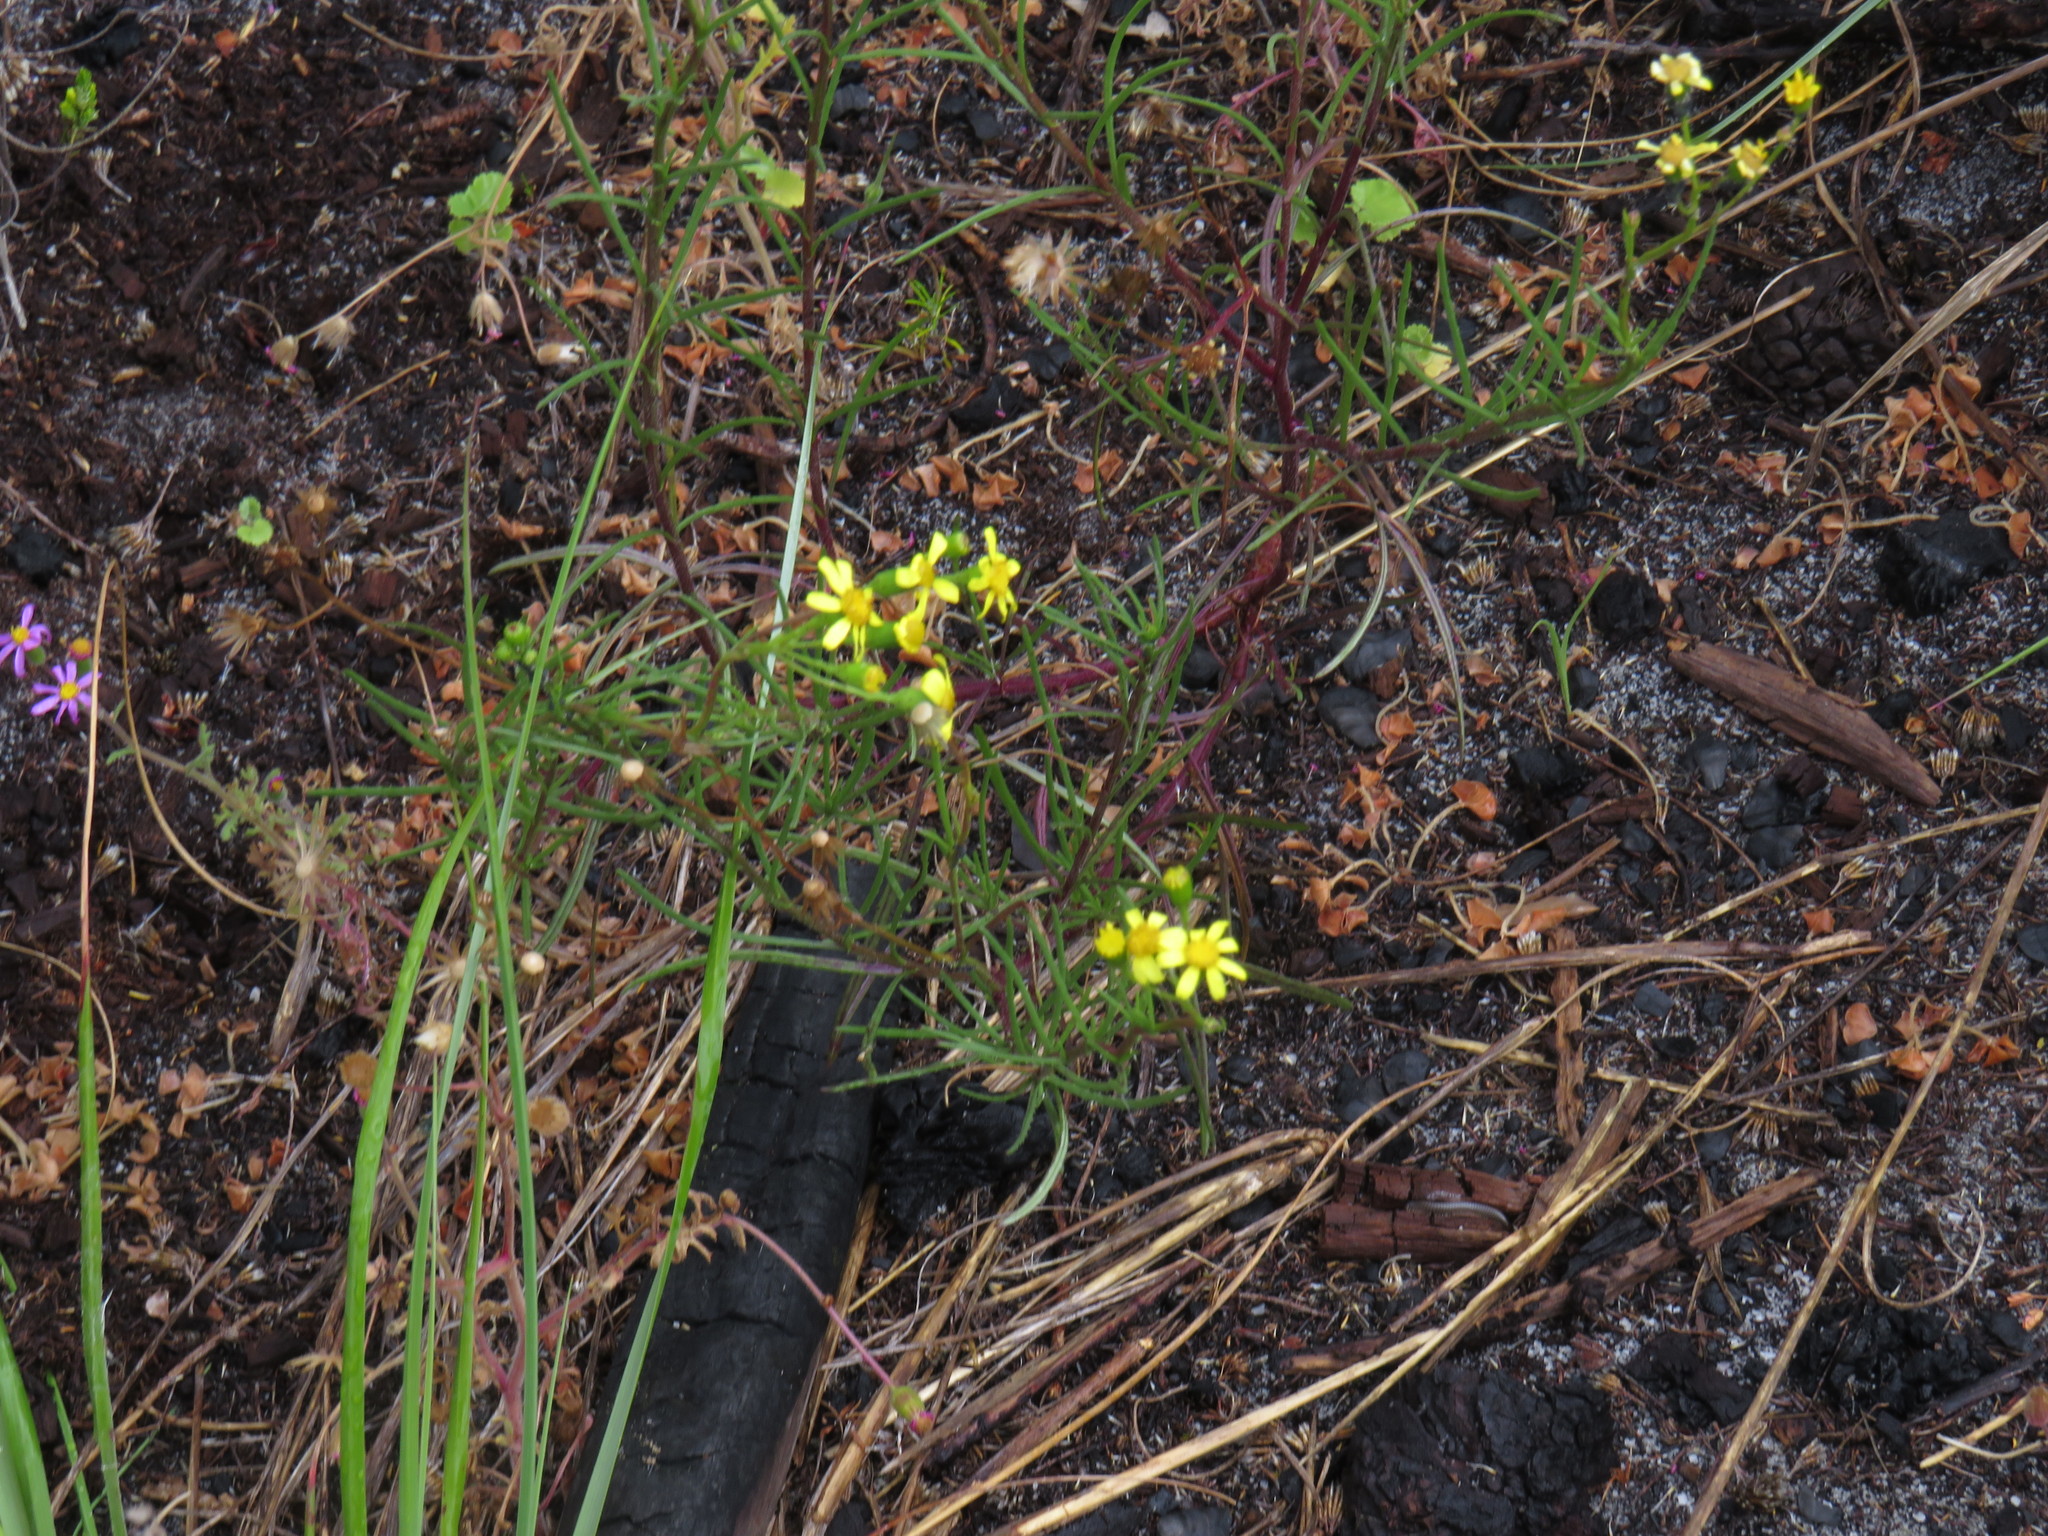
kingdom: Plantae
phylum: Tracheophyta
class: Magnoliopsida
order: Asterales
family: Asteraceae
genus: Senecio
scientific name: Senecio burchellii
